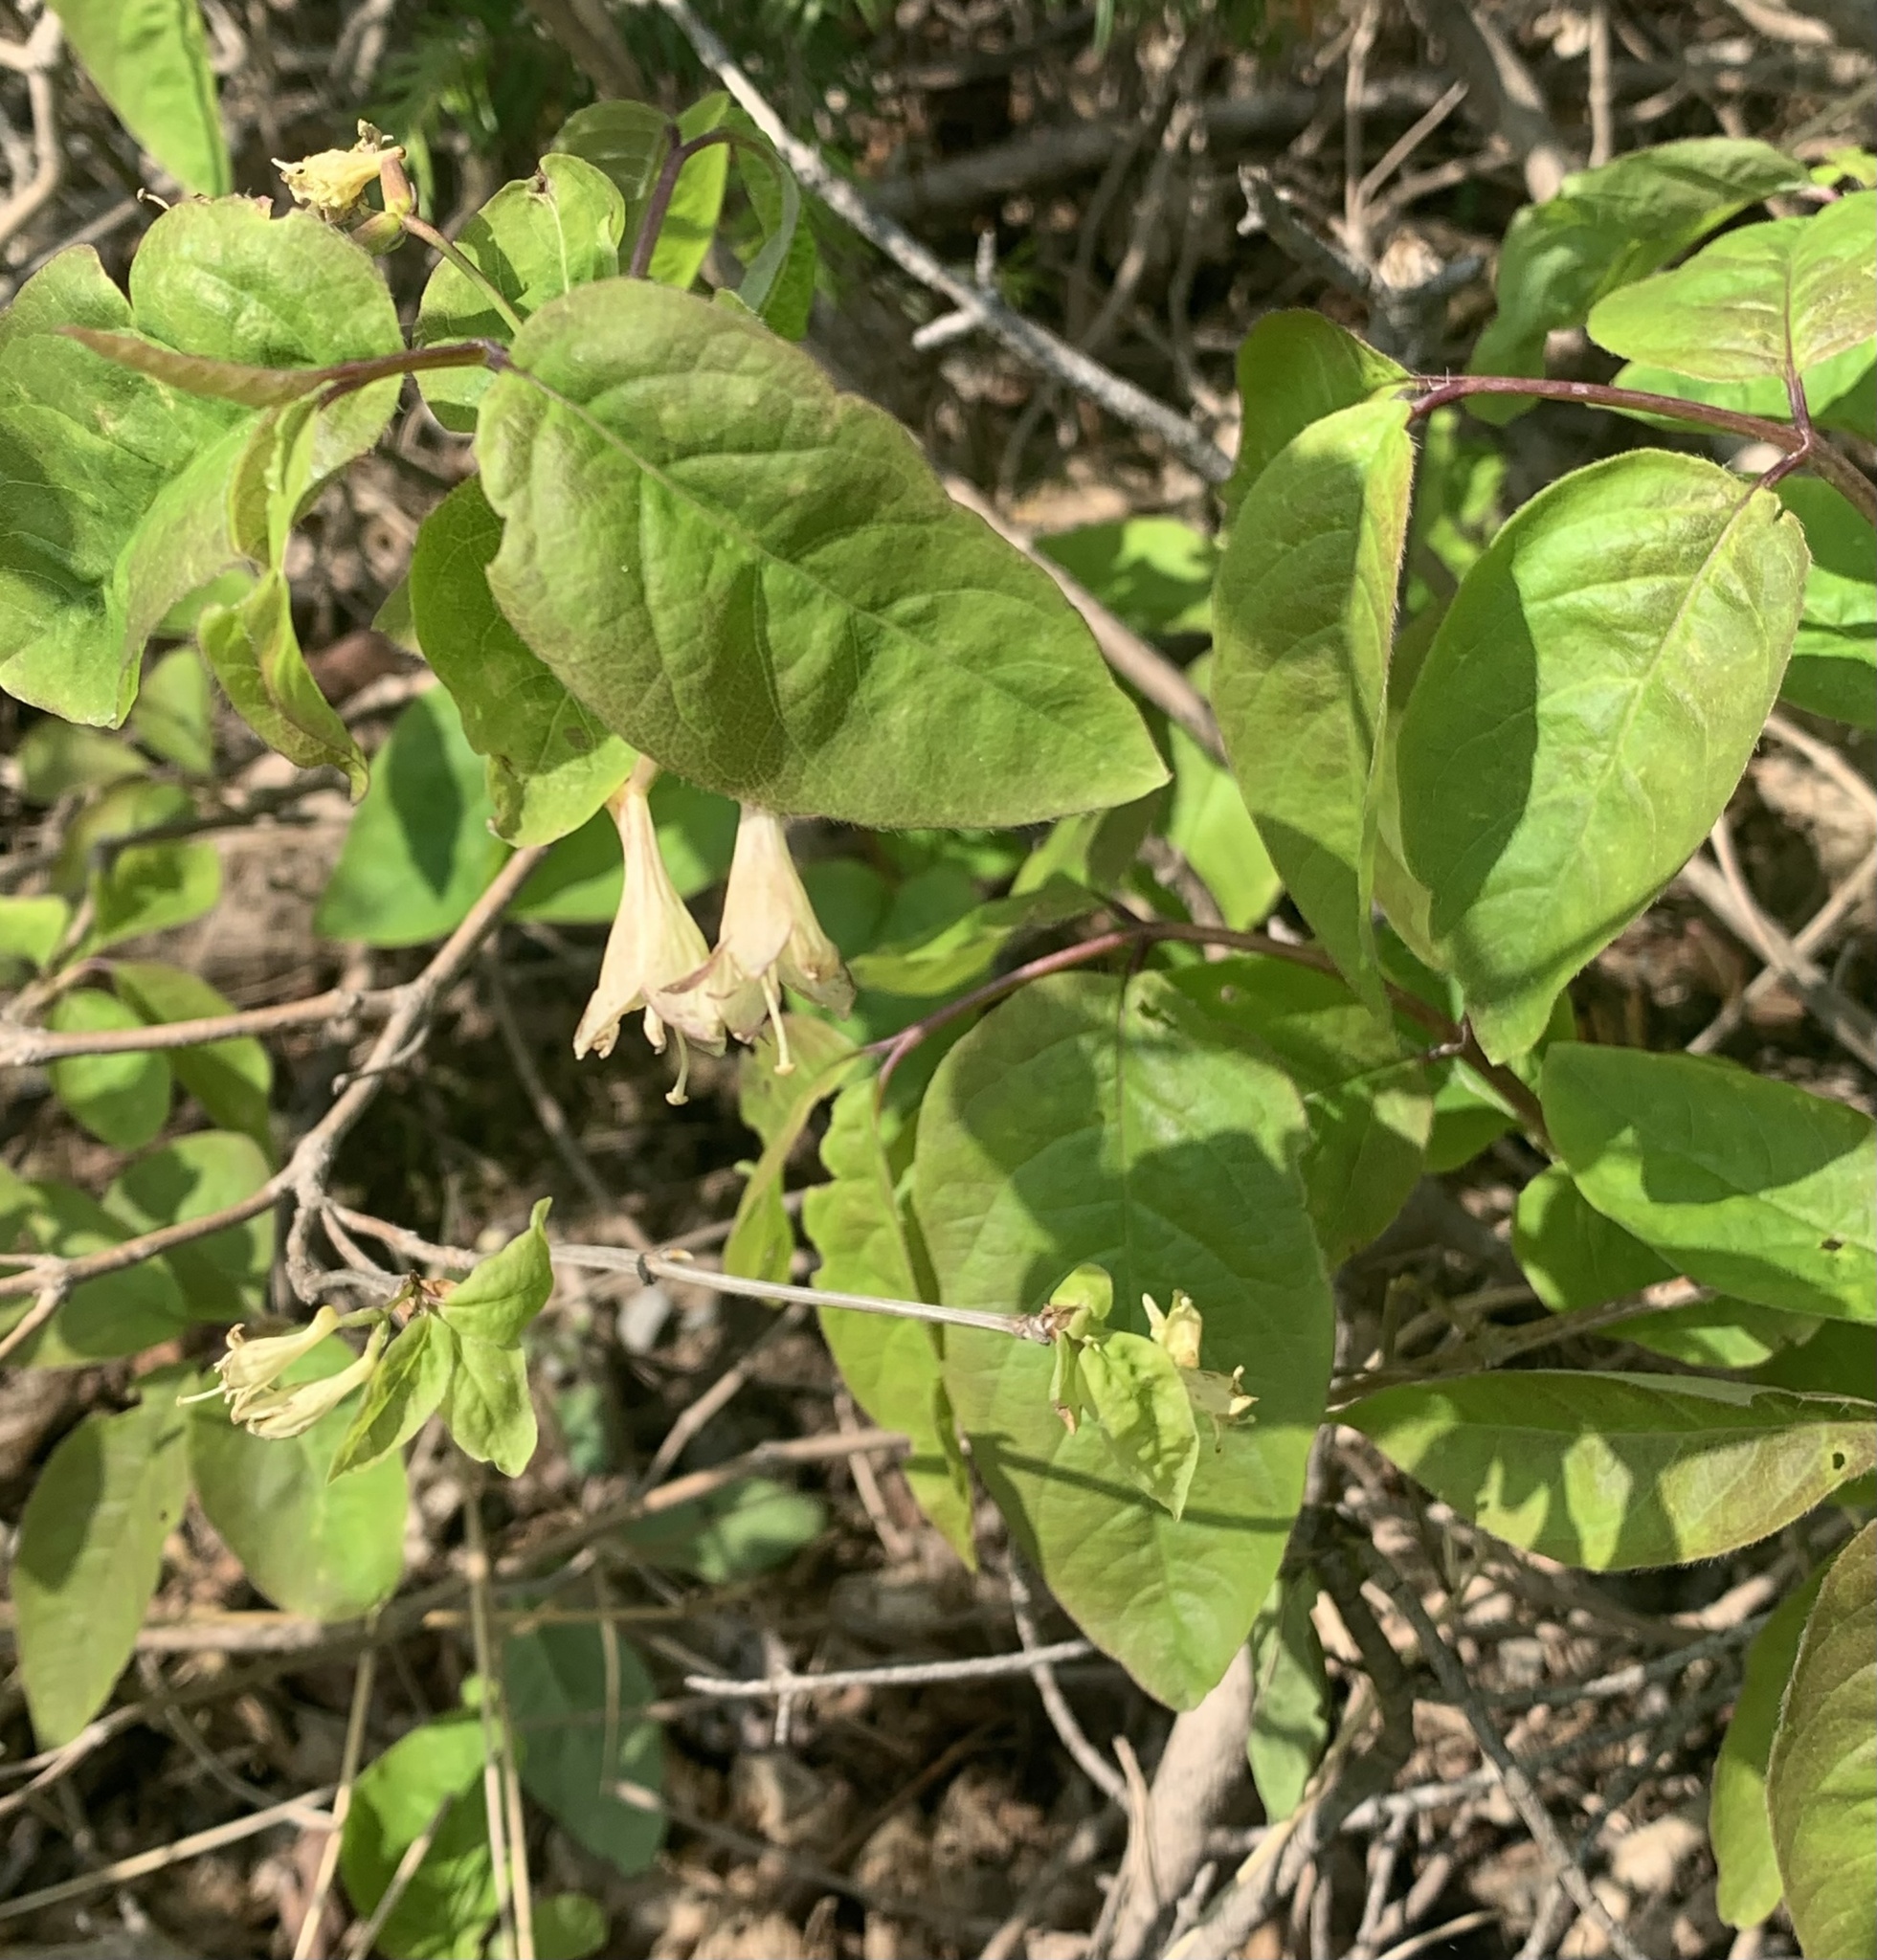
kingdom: Plantae
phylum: Tracheophyta
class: Magnoliopsida
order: Dipsacales
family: Caprifoliaceae
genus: Lonicera
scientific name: Lonicera canadensis
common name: American fly-honeysuckle
